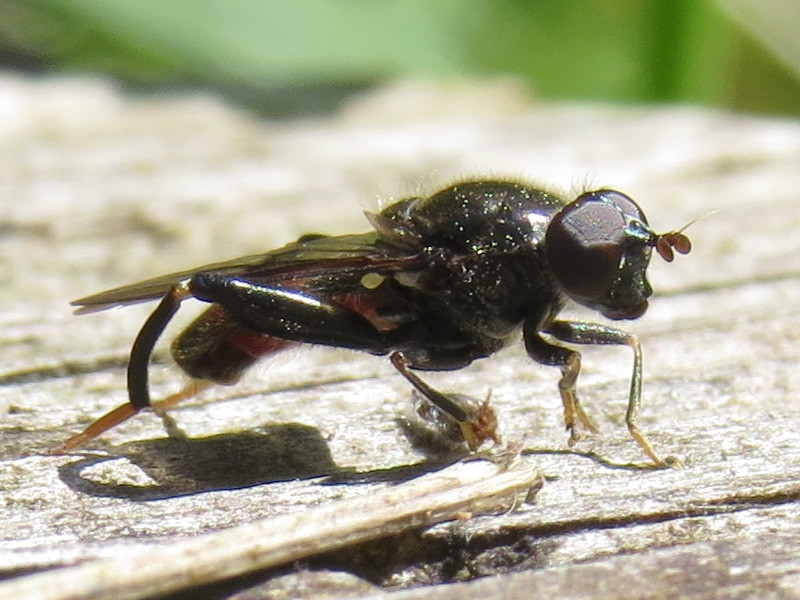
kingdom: Animalia
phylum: Arthropoda
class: Insecta
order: Diptera
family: Syrphidae
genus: Chalcosyrphus
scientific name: Chalcosyrphus libo
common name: Long-haired forest fly
